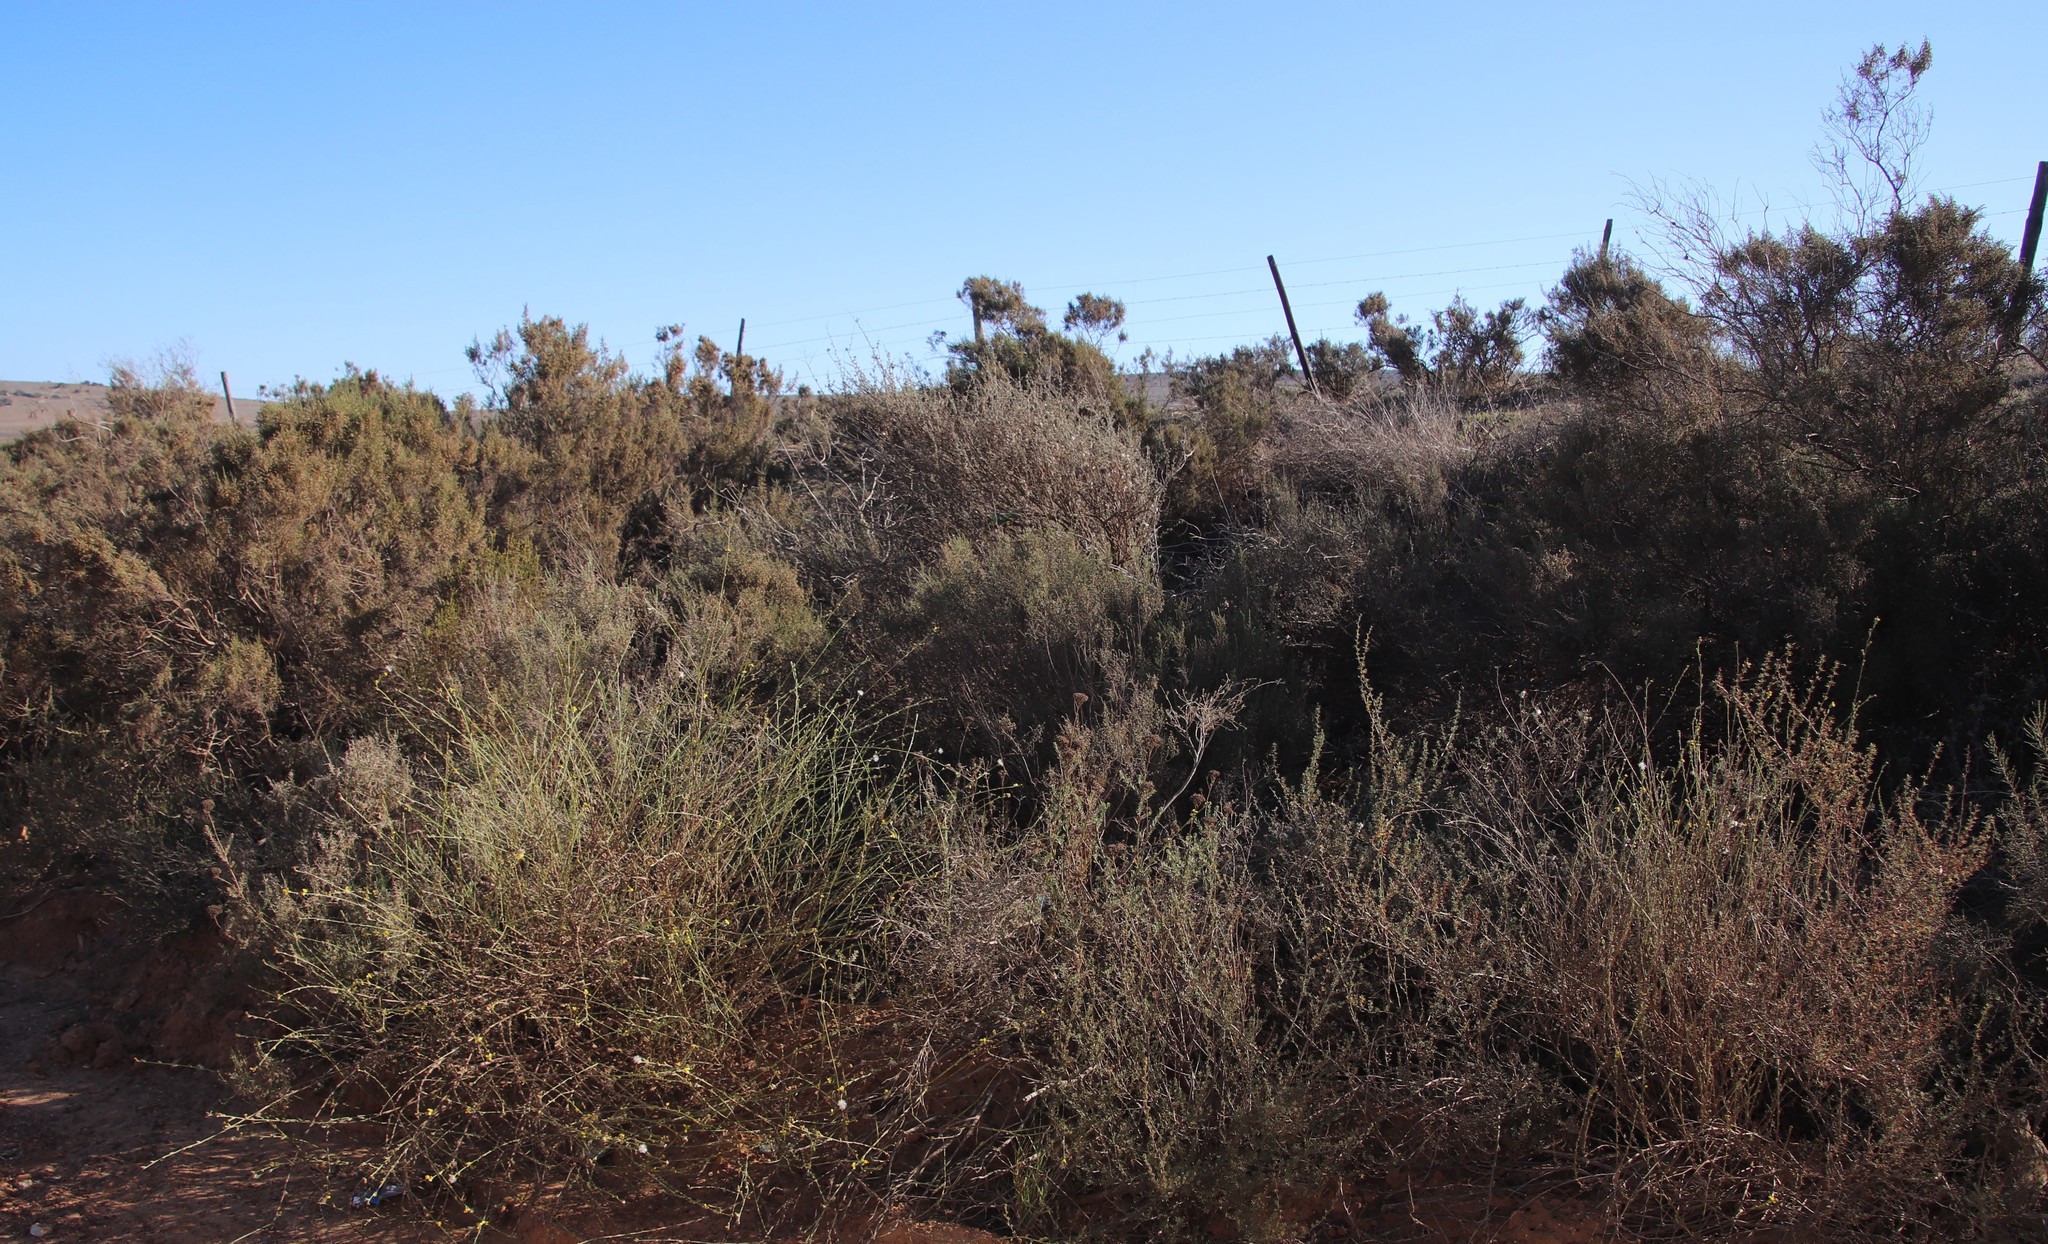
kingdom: Plantae
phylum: Tracheophyta
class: Magnoliopsida
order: Asterales
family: Asteraceae
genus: Senecio
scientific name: Senecio pubigerus
